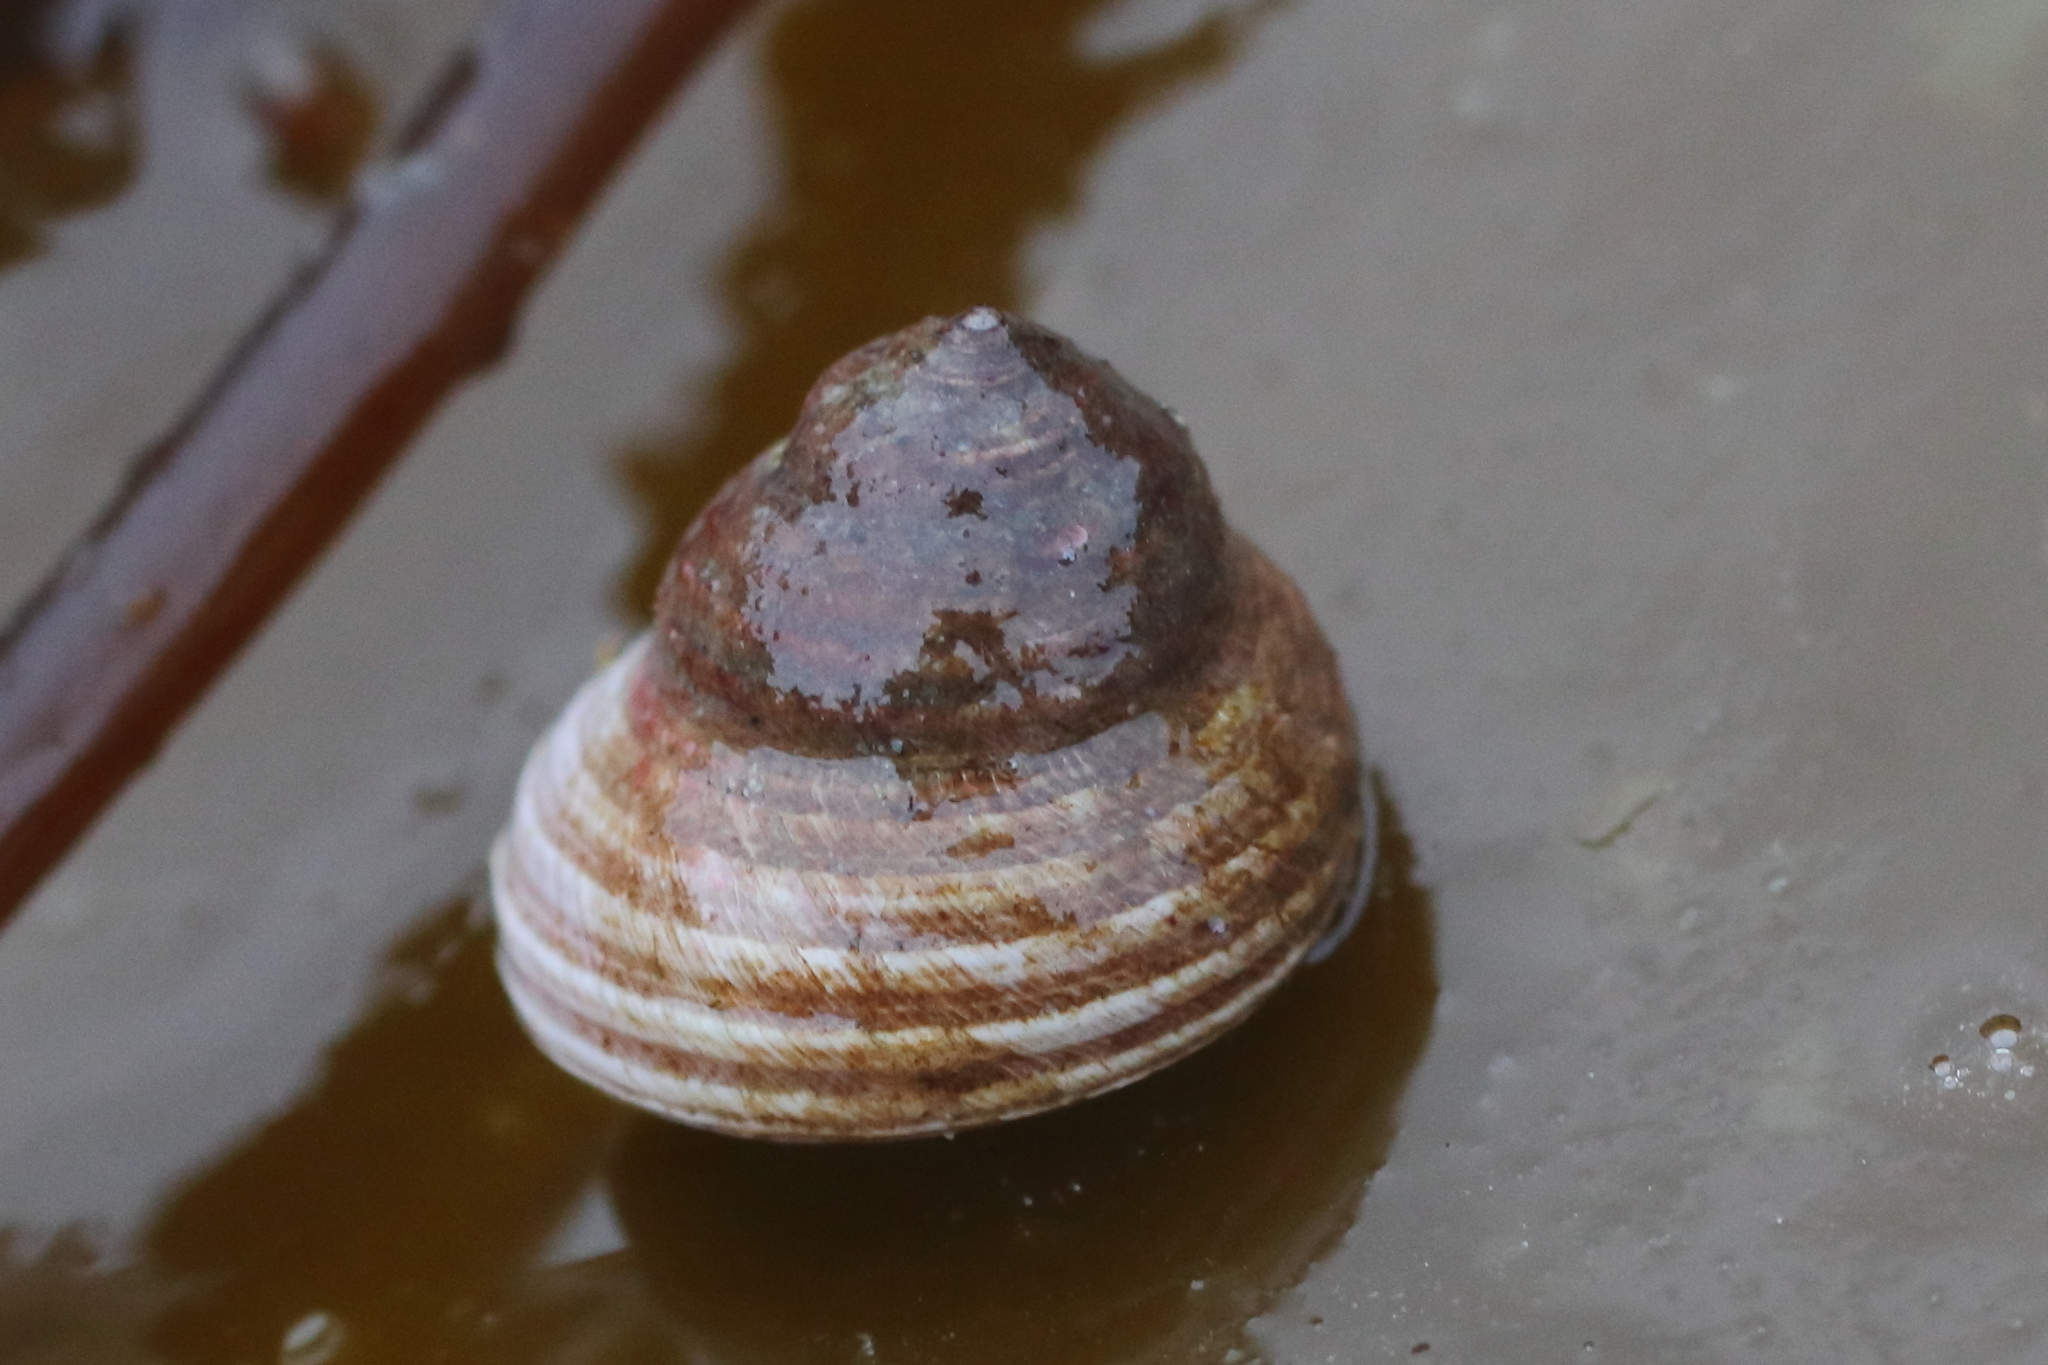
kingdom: Animalia
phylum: Mollusca
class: Gastropoda
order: Trochida
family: Margaritidae
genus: Margarites
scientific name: Margarites pupillus
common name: Puppet margarite
